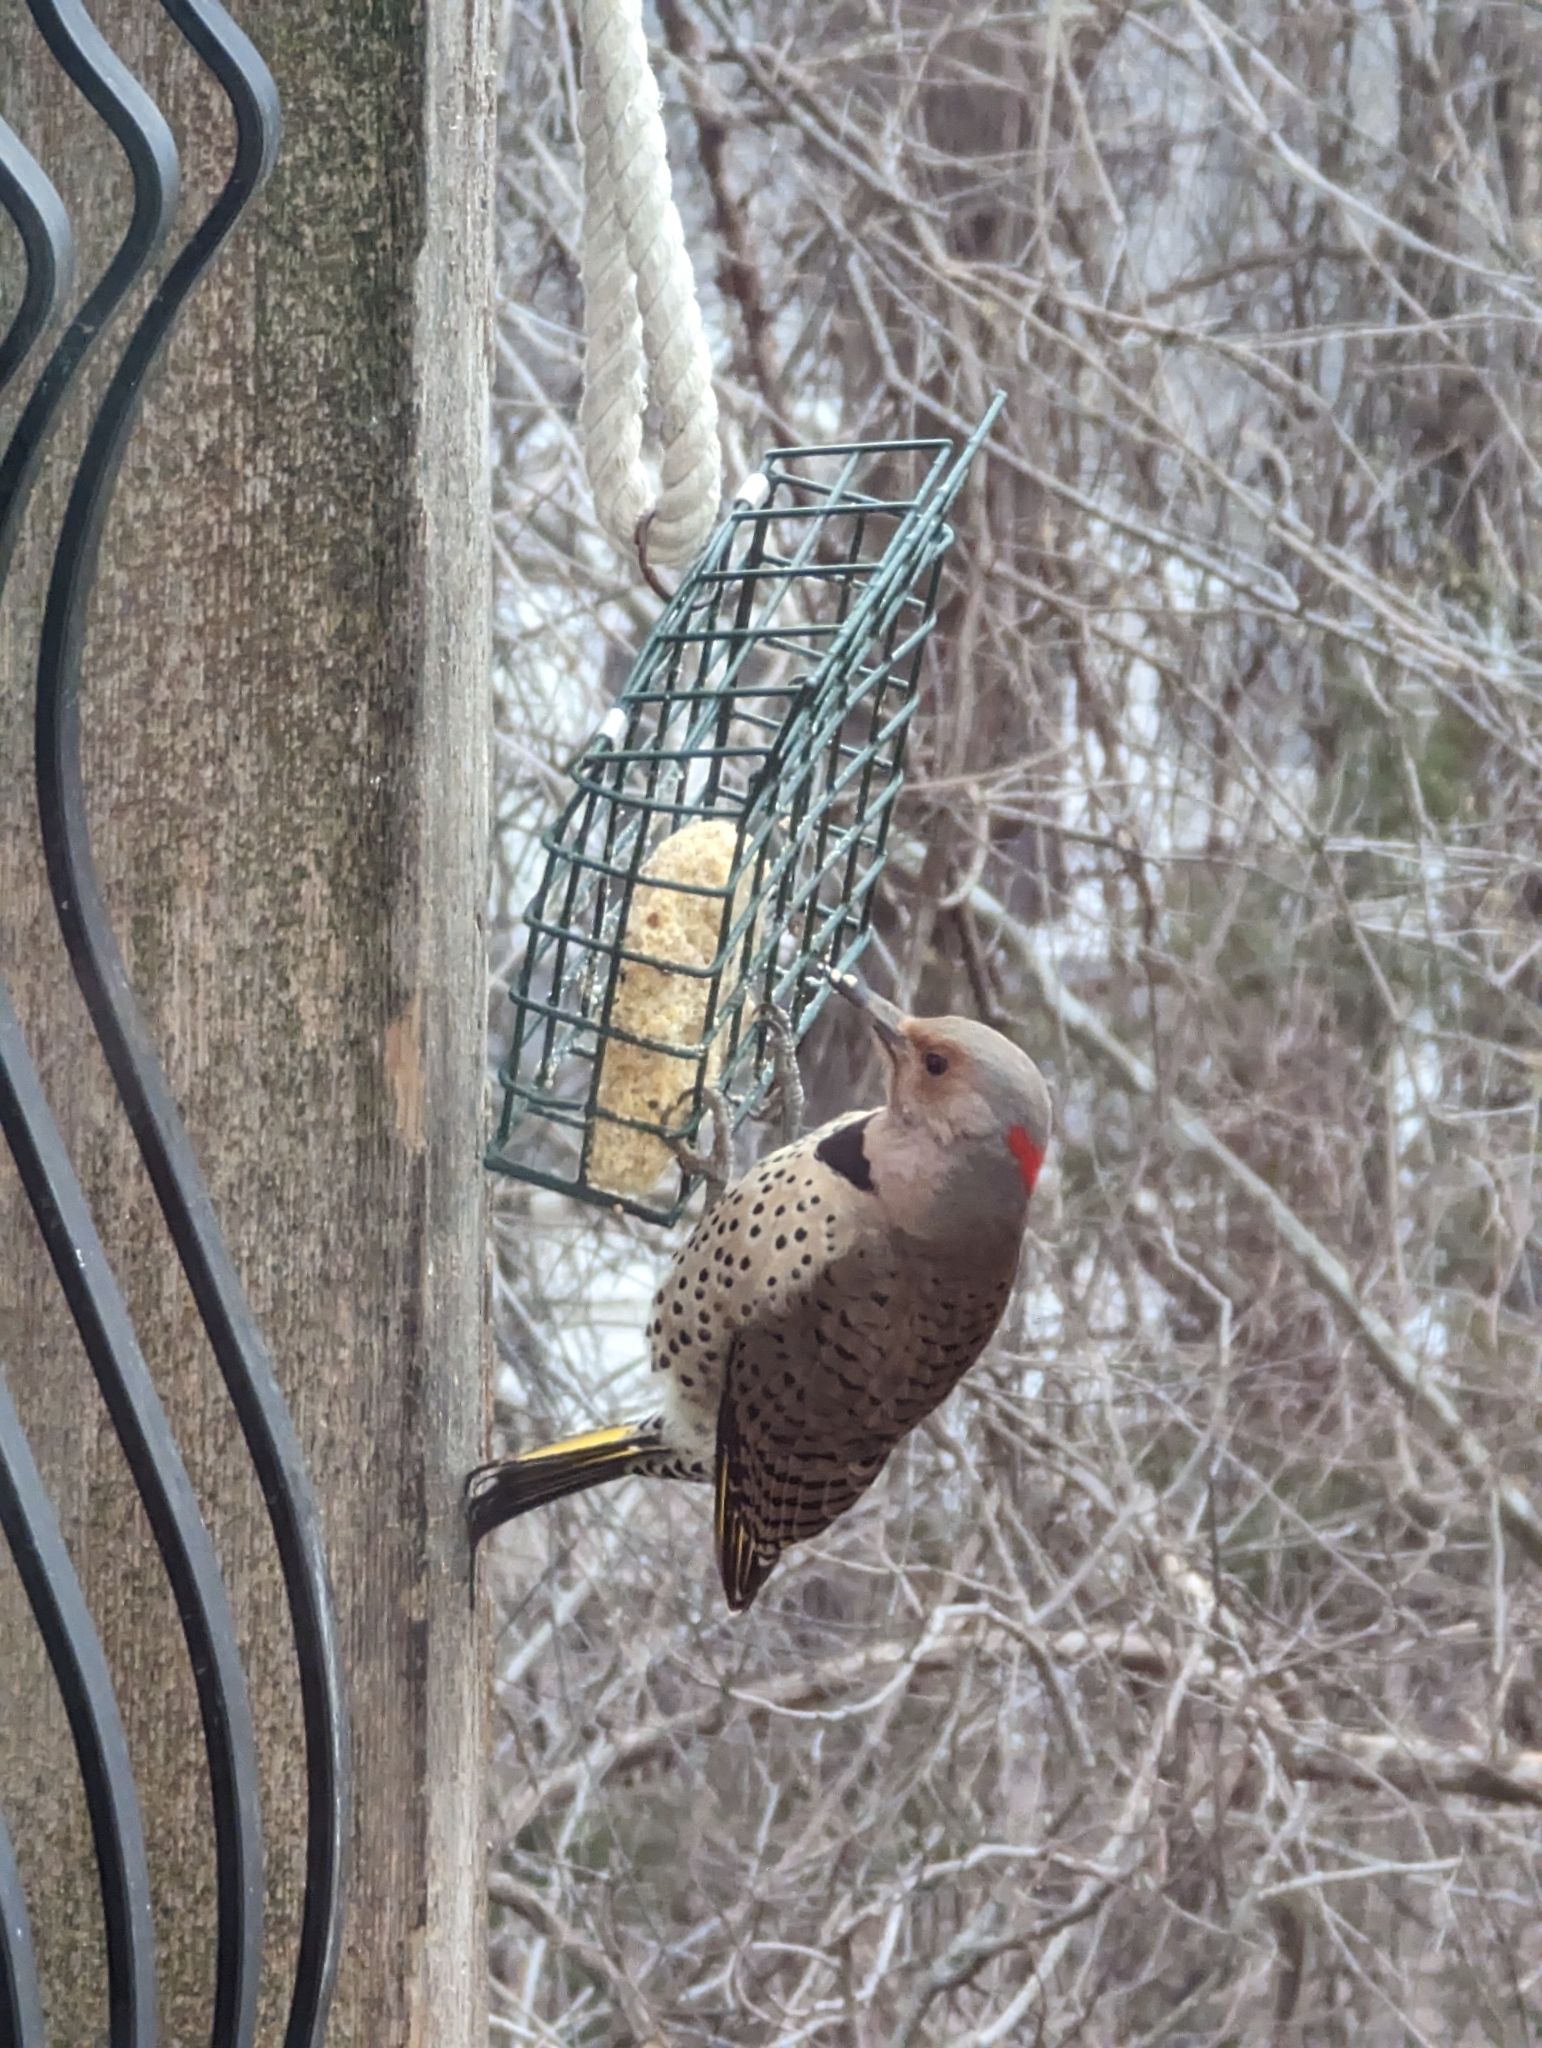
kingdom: Animalia
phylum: Chordata
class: Aves
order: Piciformes
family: Picidae
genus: Colaptes
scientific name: Colaptes auratus
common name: Northern flicker
